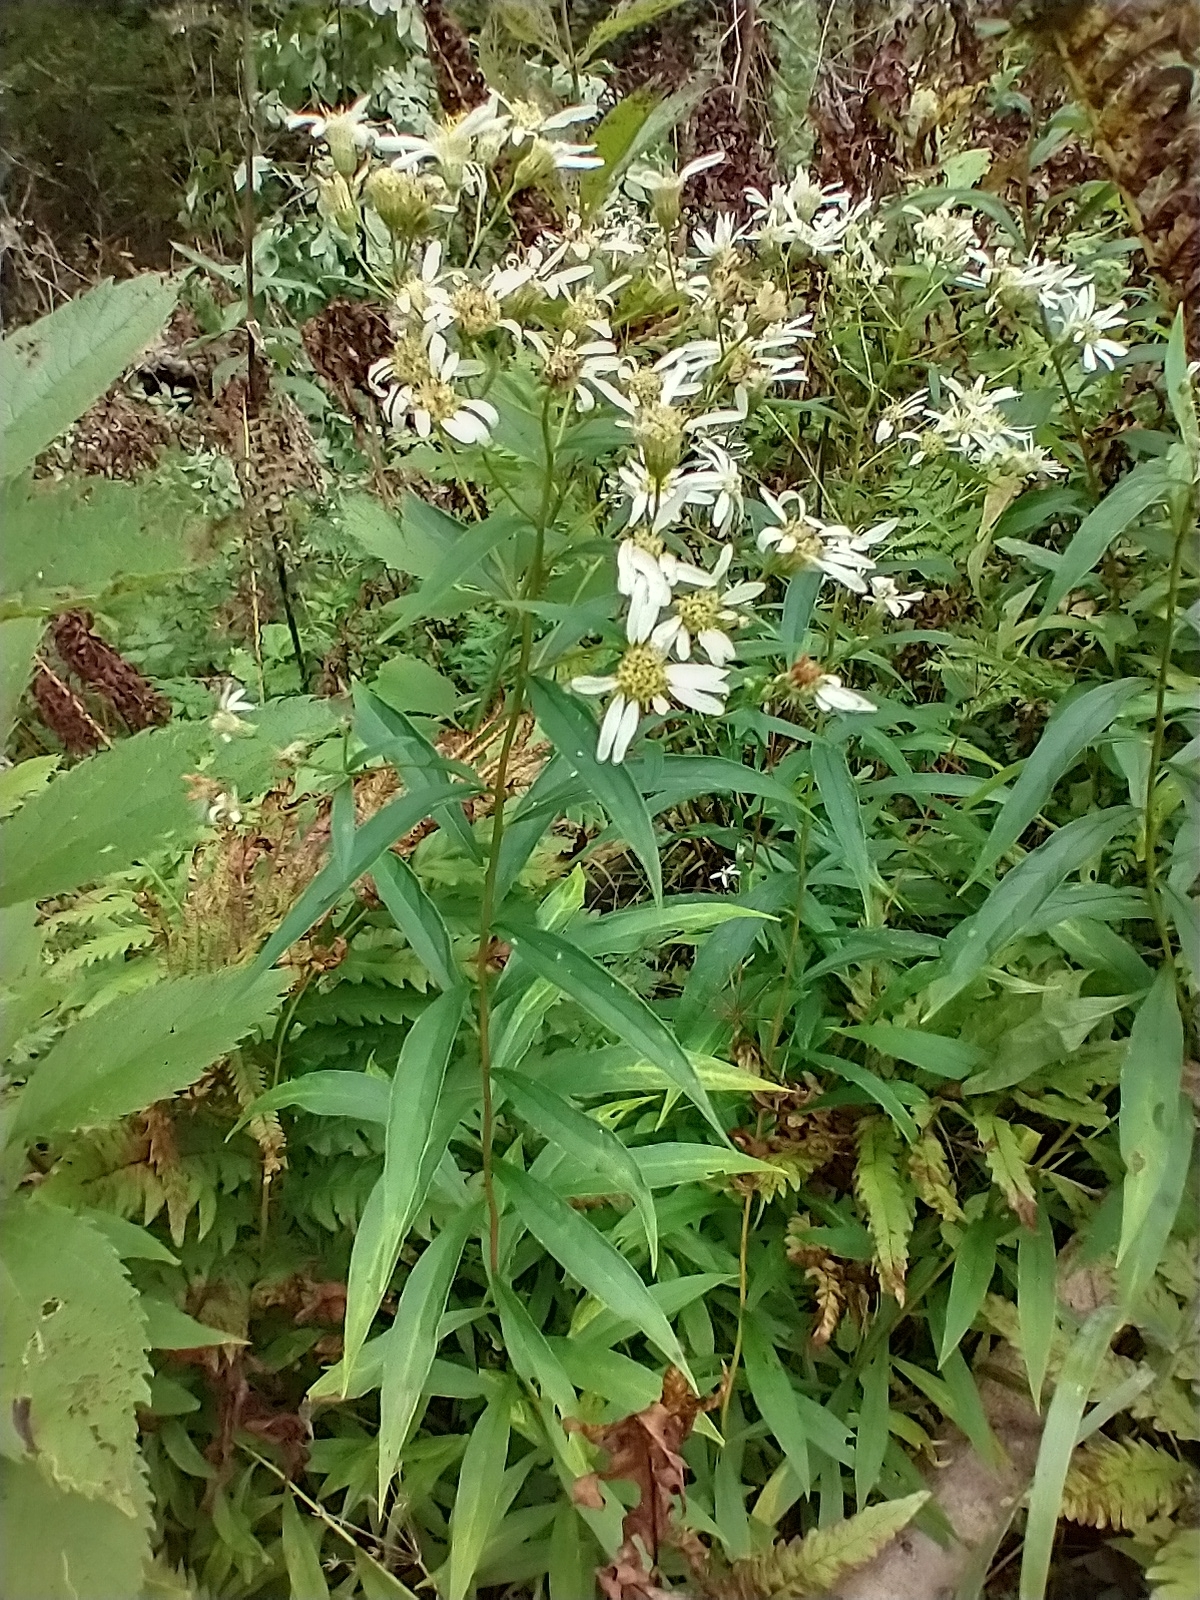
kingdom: Plantae
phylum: Tracheophyta
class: Magnoliopsida
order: Asterales
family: Asteraceae
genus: Doellingeria
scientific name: Doellingeria umbellata
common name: Flat-top white aster
